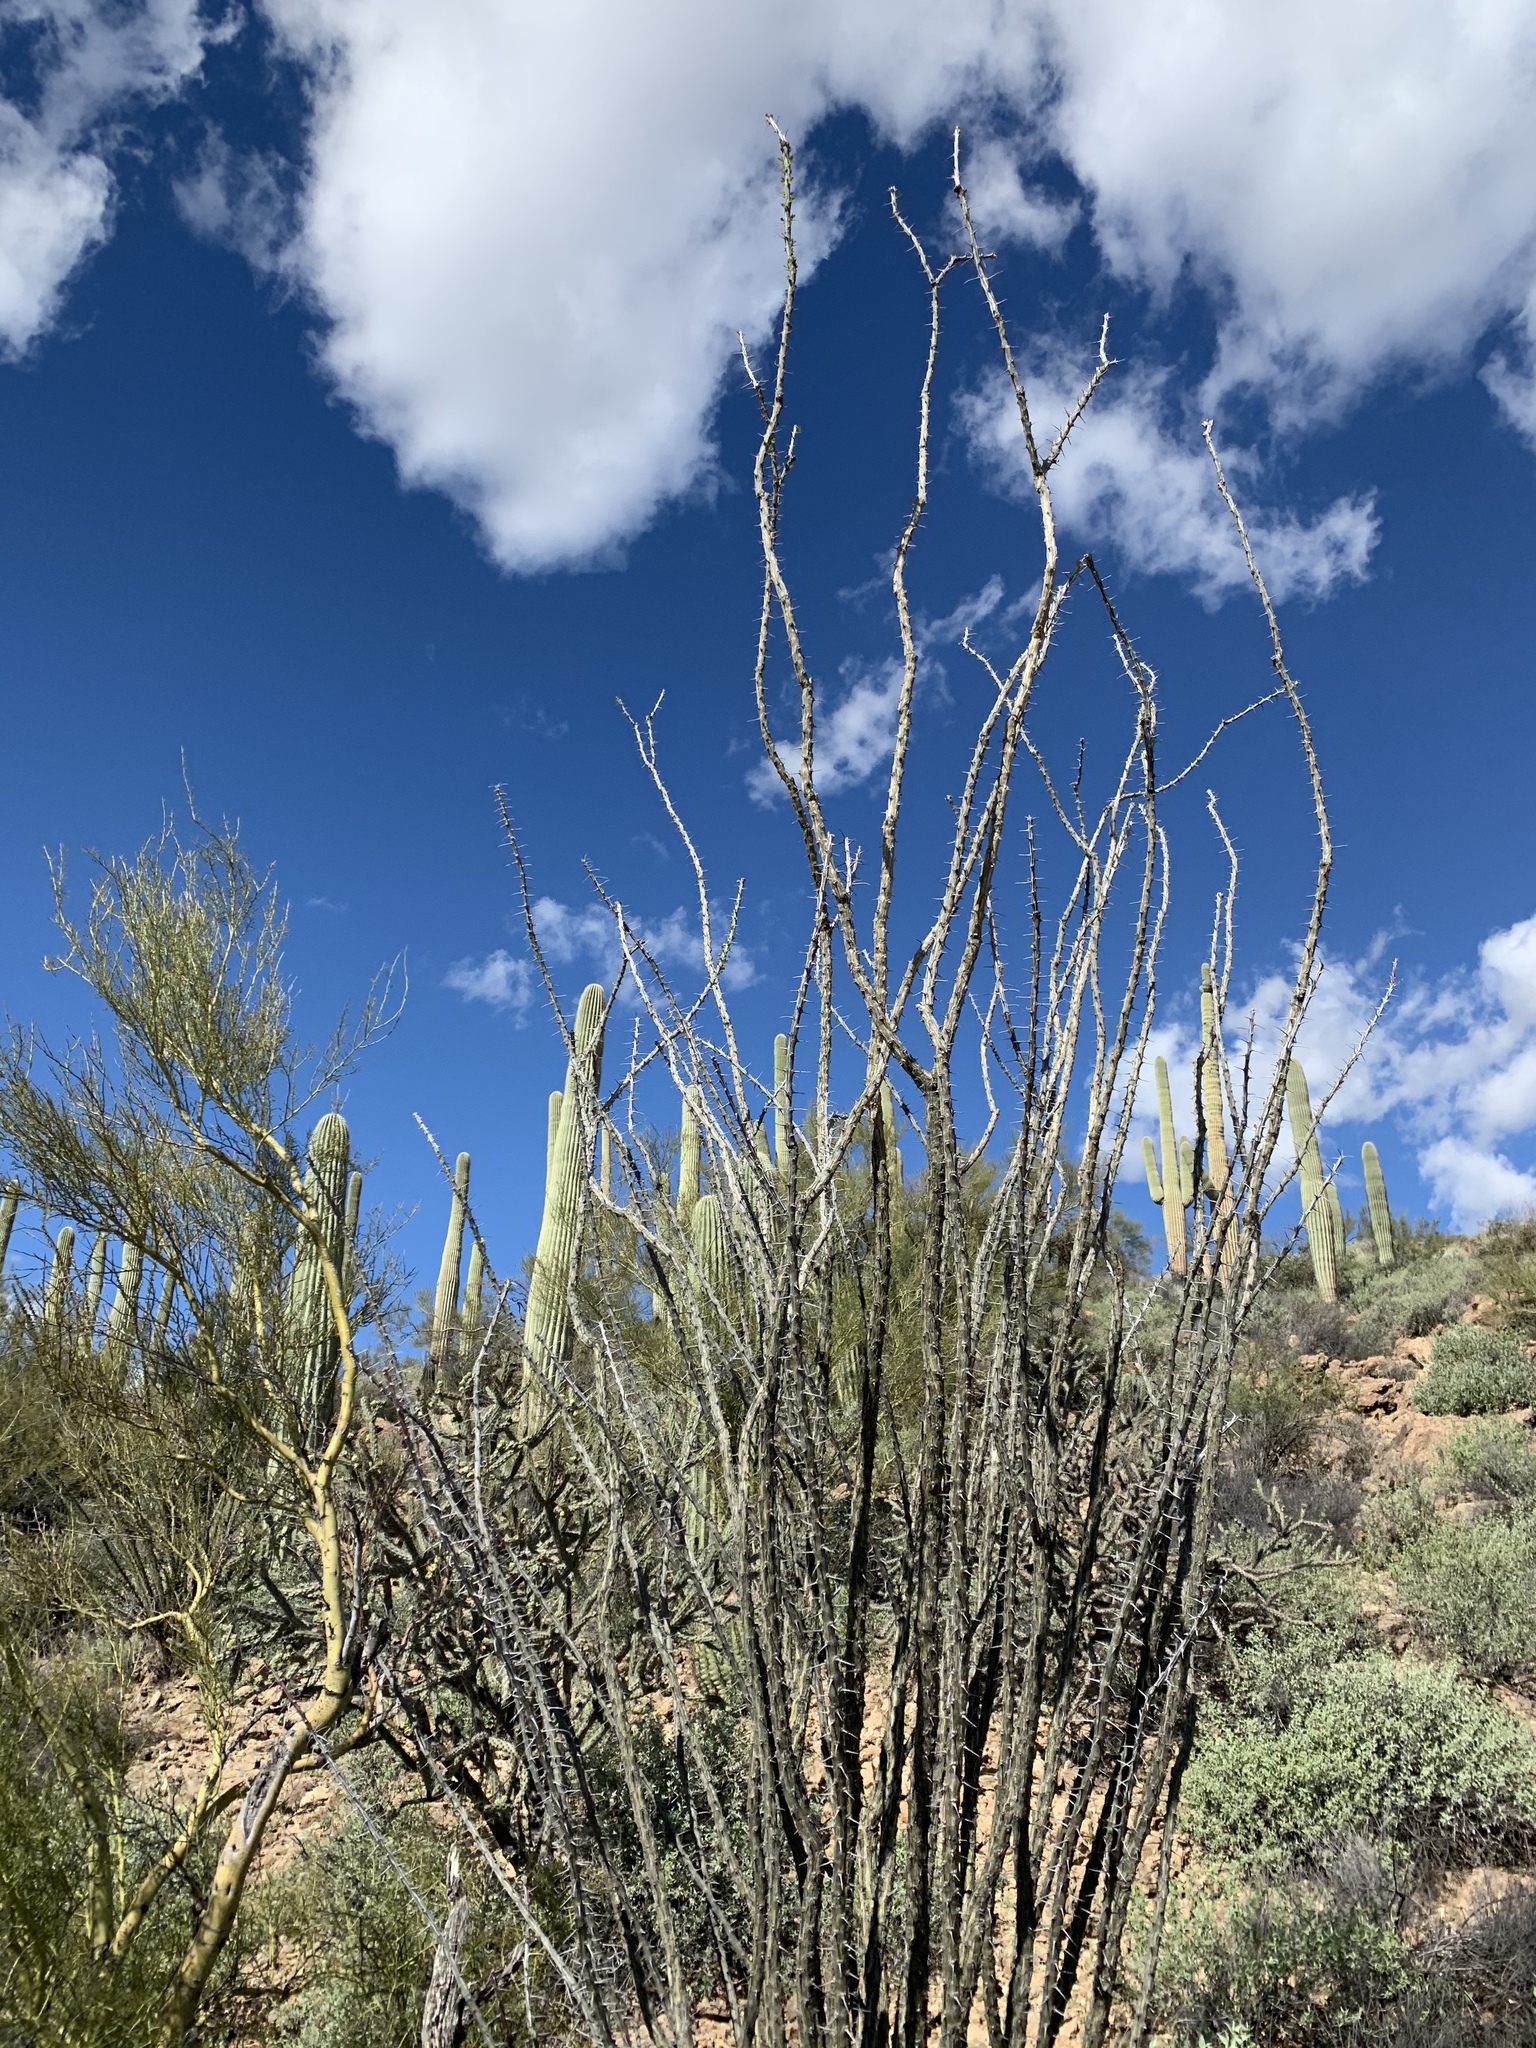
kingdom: Plantae
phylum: Tracheophyta
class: Magnoliopsida
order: Ericales
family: Fouquieriaceae
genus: Fouquieria
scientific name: Fouquieria splendens
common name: Vine-cactus
